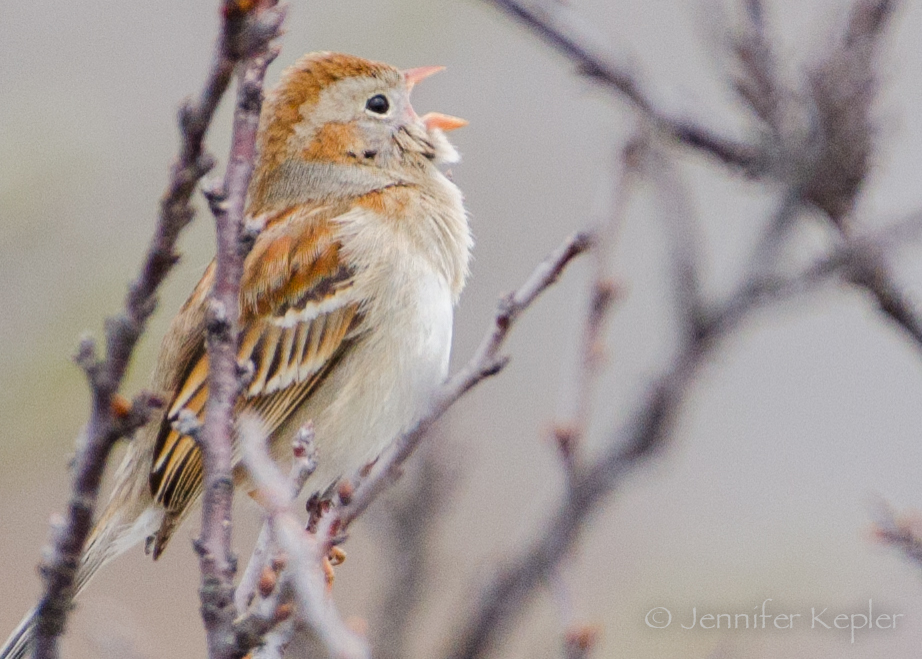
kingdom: Animalia
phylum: Chordata
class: Aves
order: Passeriformes
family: Passerellidae
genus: Spizella
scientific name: Spizella pusilla
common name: Field sparrow
